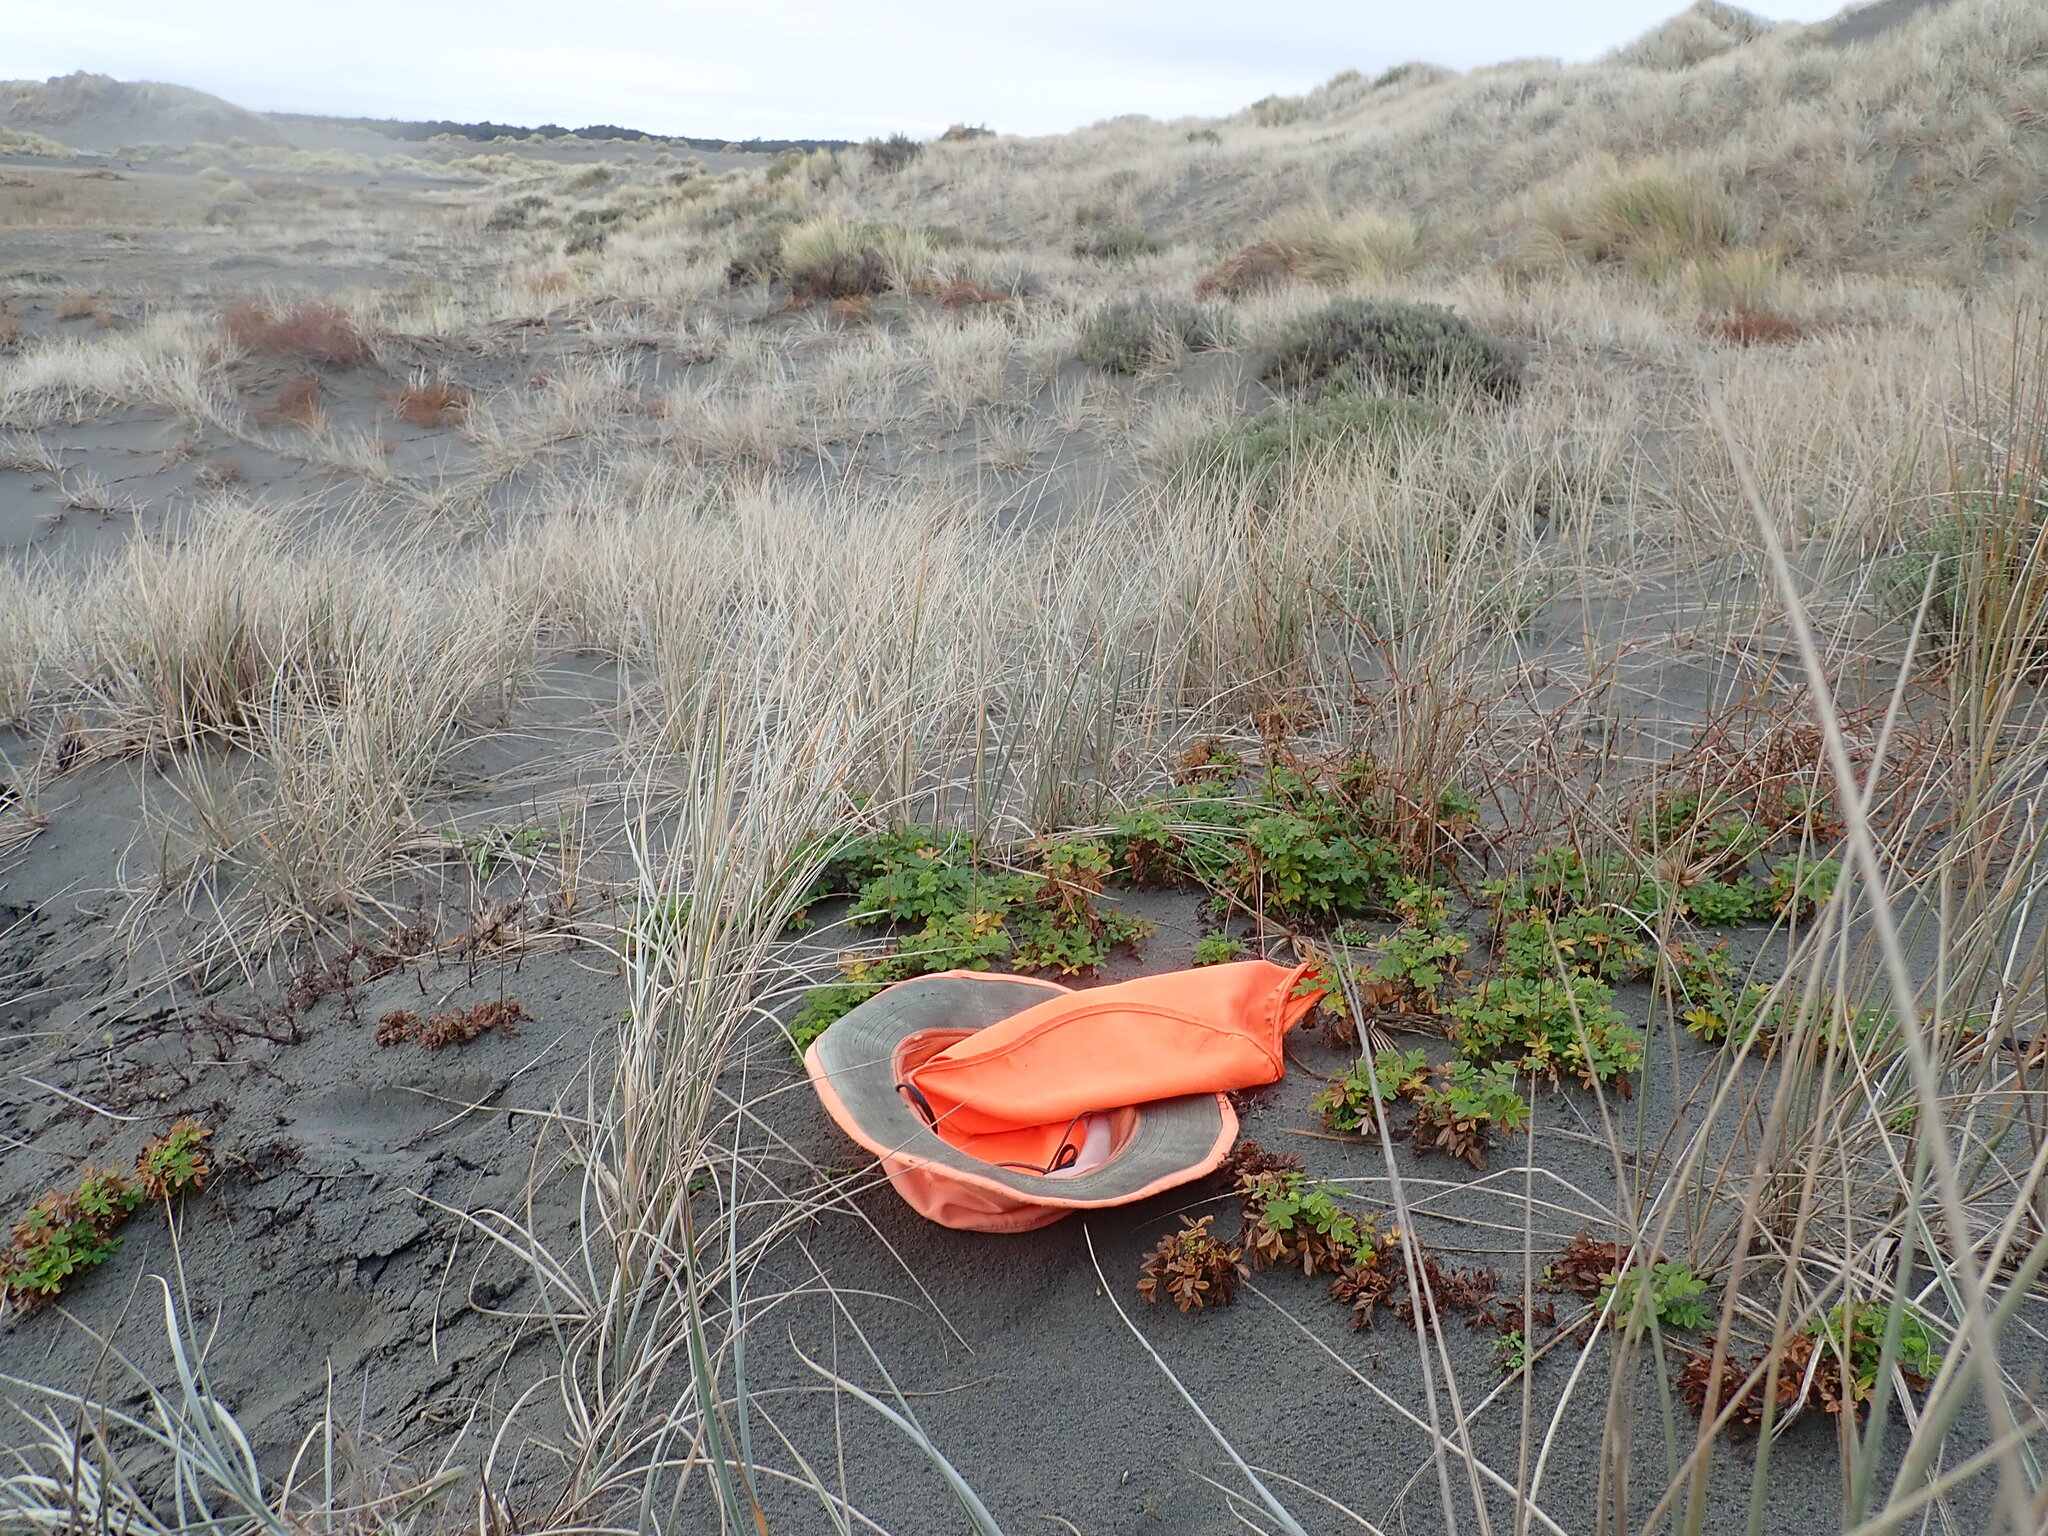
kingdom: Plantae
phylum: Tracheophyta
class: Magnoliopsida
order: Rosales
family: Rosaceae
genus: Acaena
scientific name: Acaena pallida
